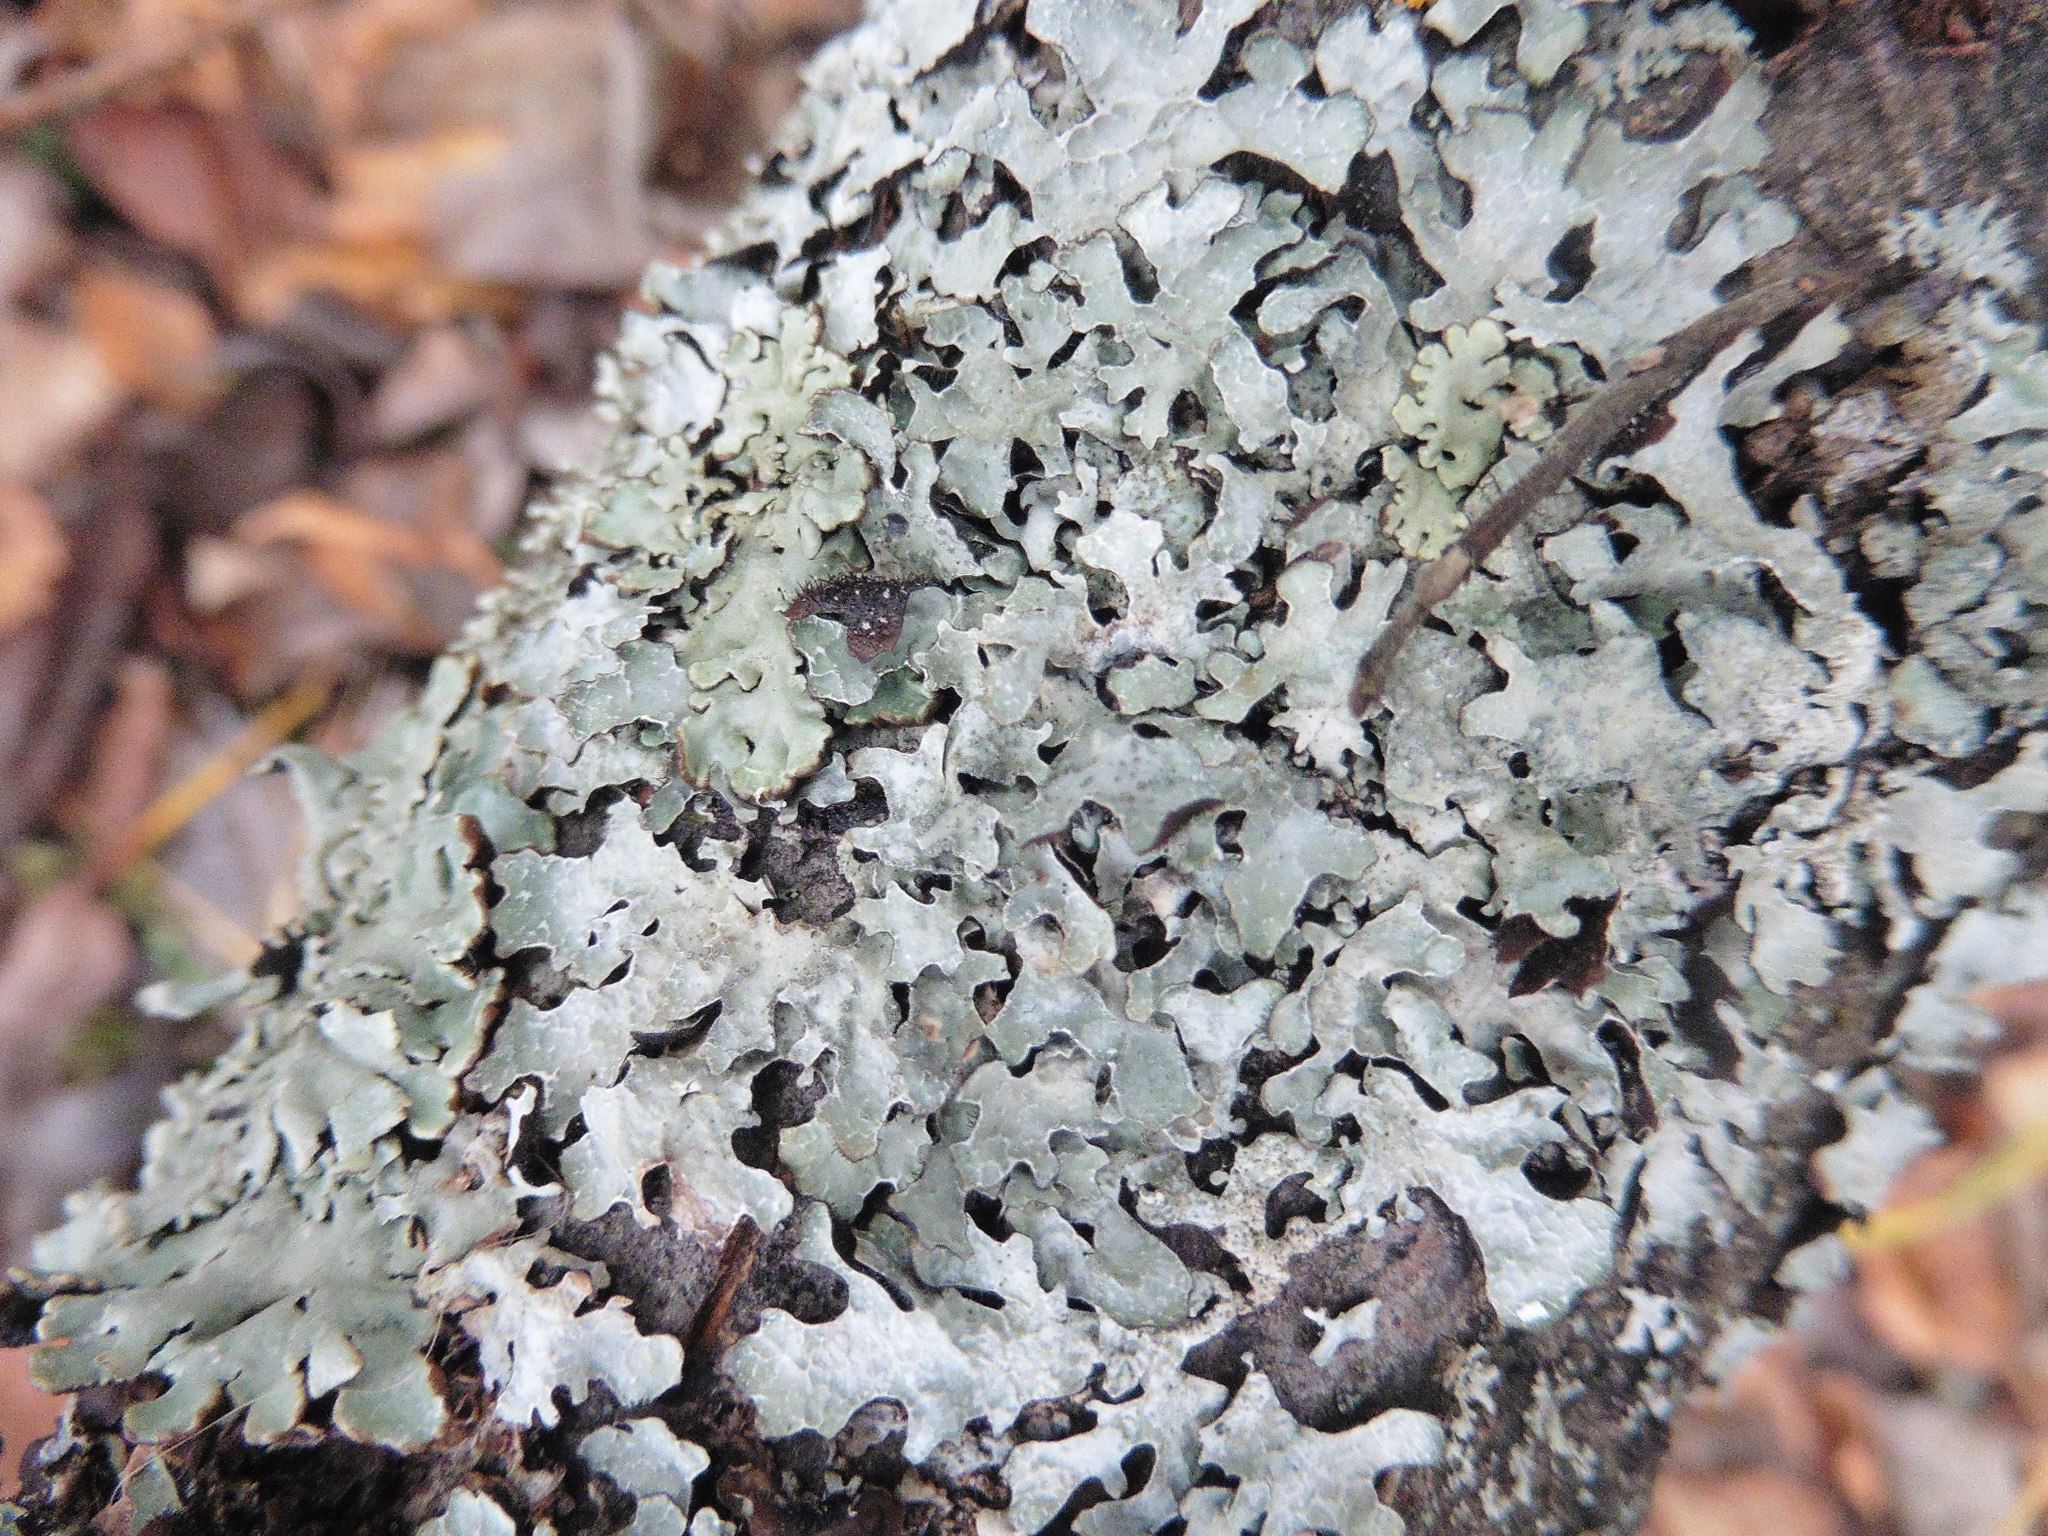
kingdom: Fungi
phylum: Ascomycota
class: Lecanoromycetes
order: Lecanorales
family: Parmeliaceae
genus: Parmelia
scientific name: Parmelia sulcata
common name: Netted shield lichen
